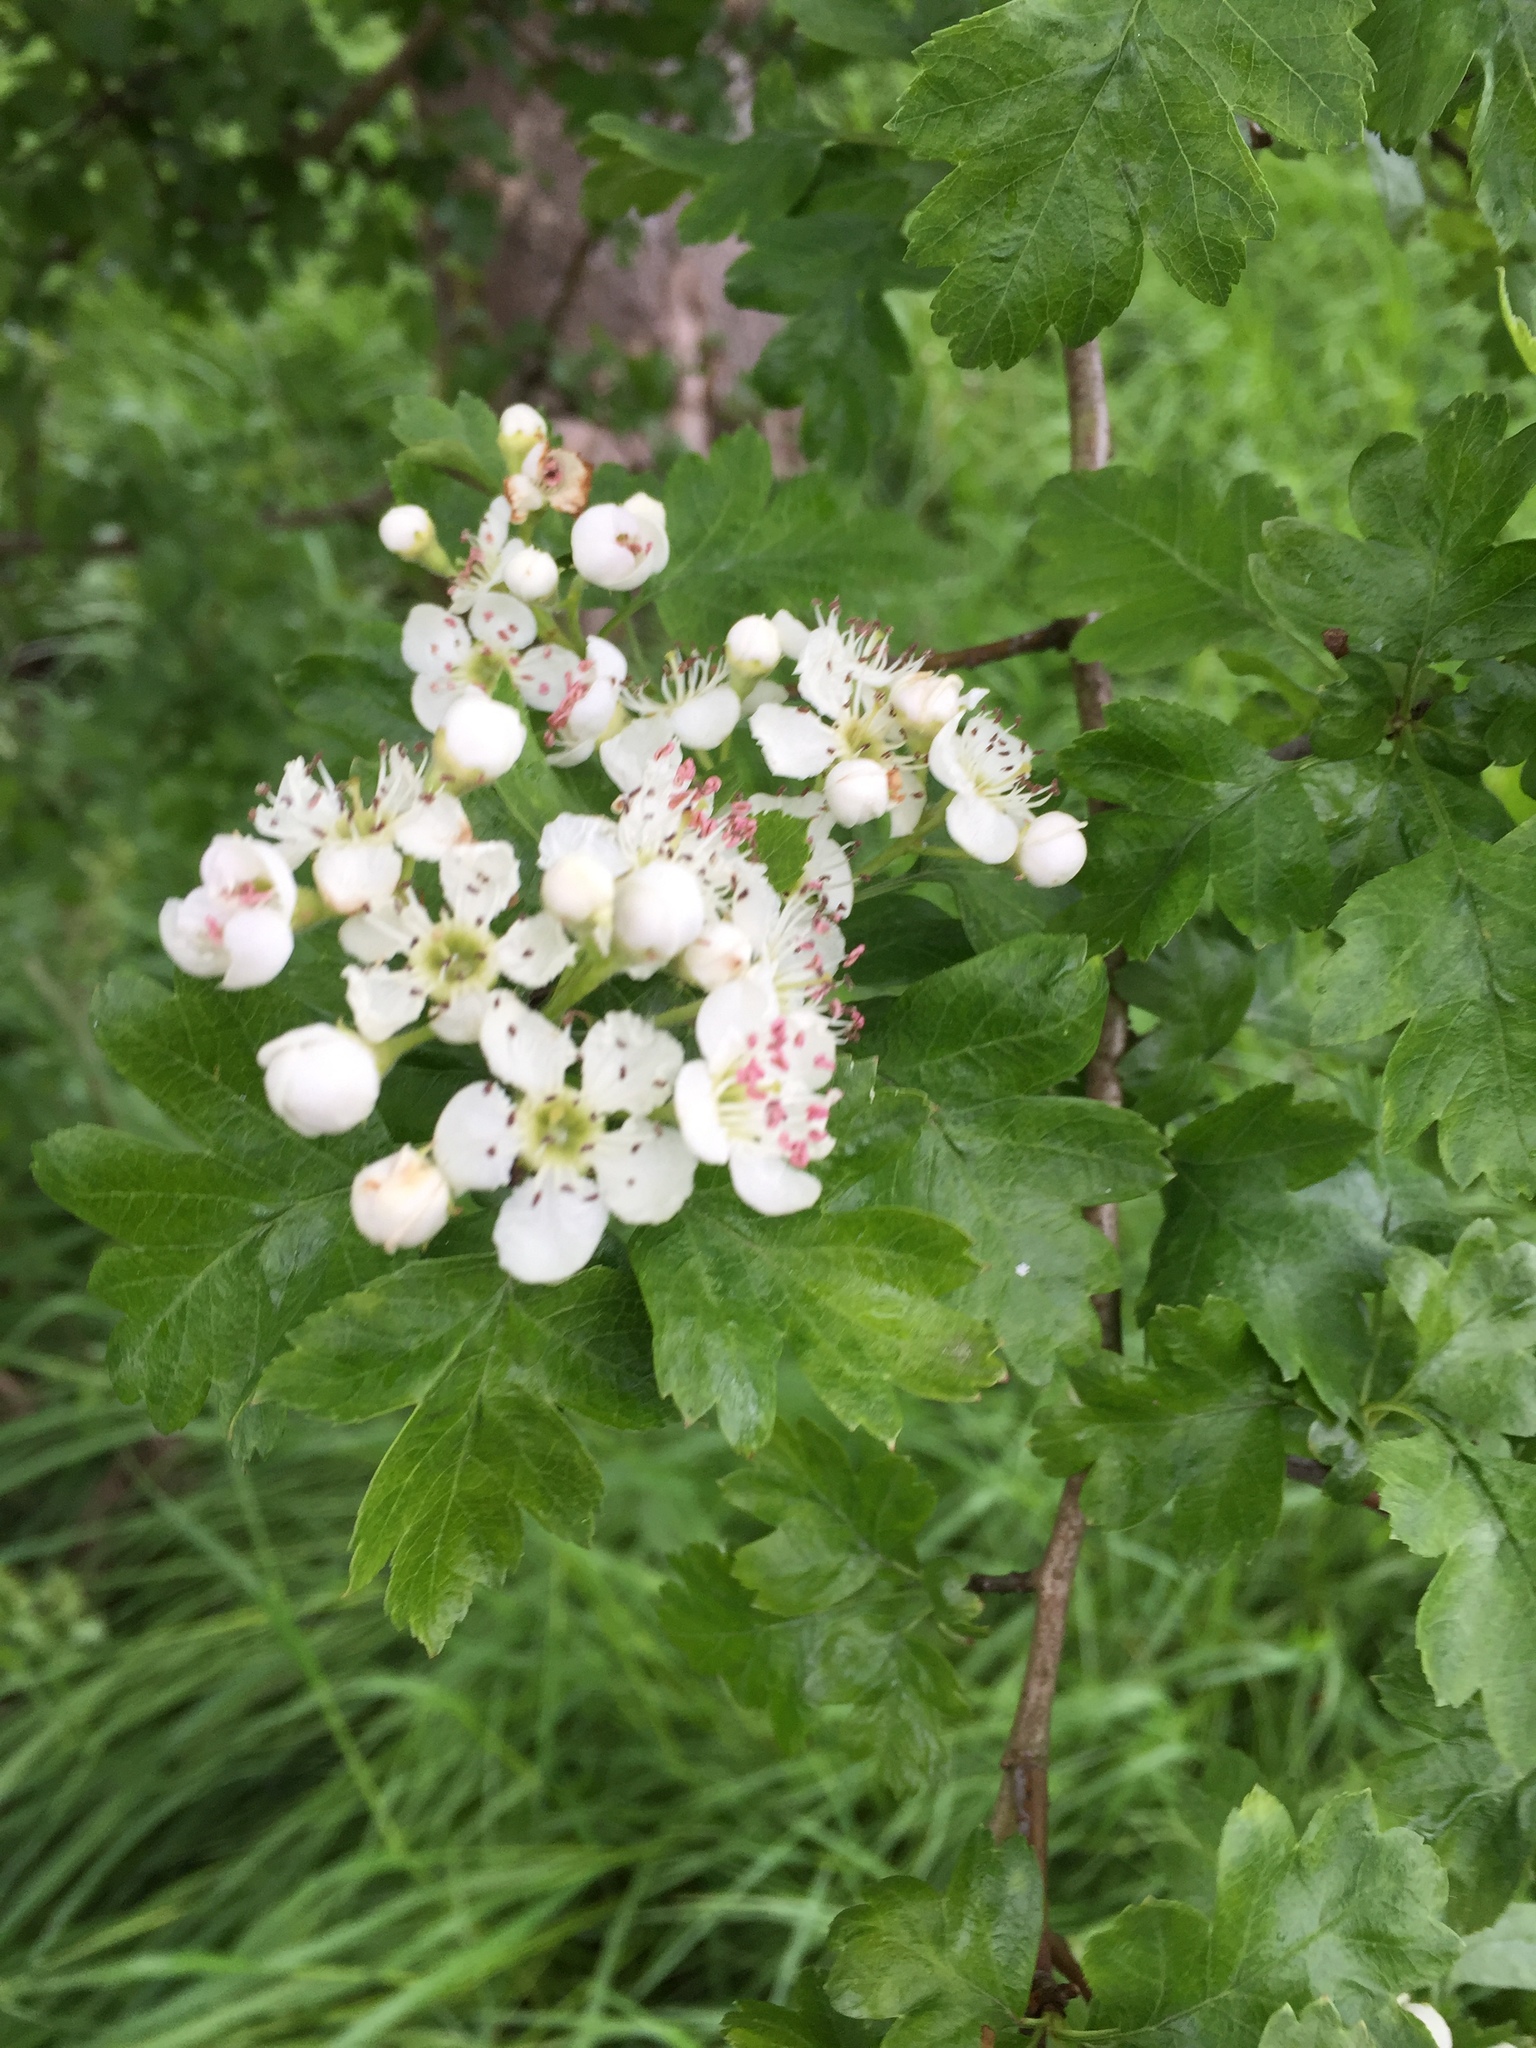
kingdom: Plantae
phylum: Tracheophyta
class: Magnoliopsida
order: Rosales
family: Rosaceae
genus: Crataegus
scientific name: Crataegus monogyna
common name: Hawthorn
